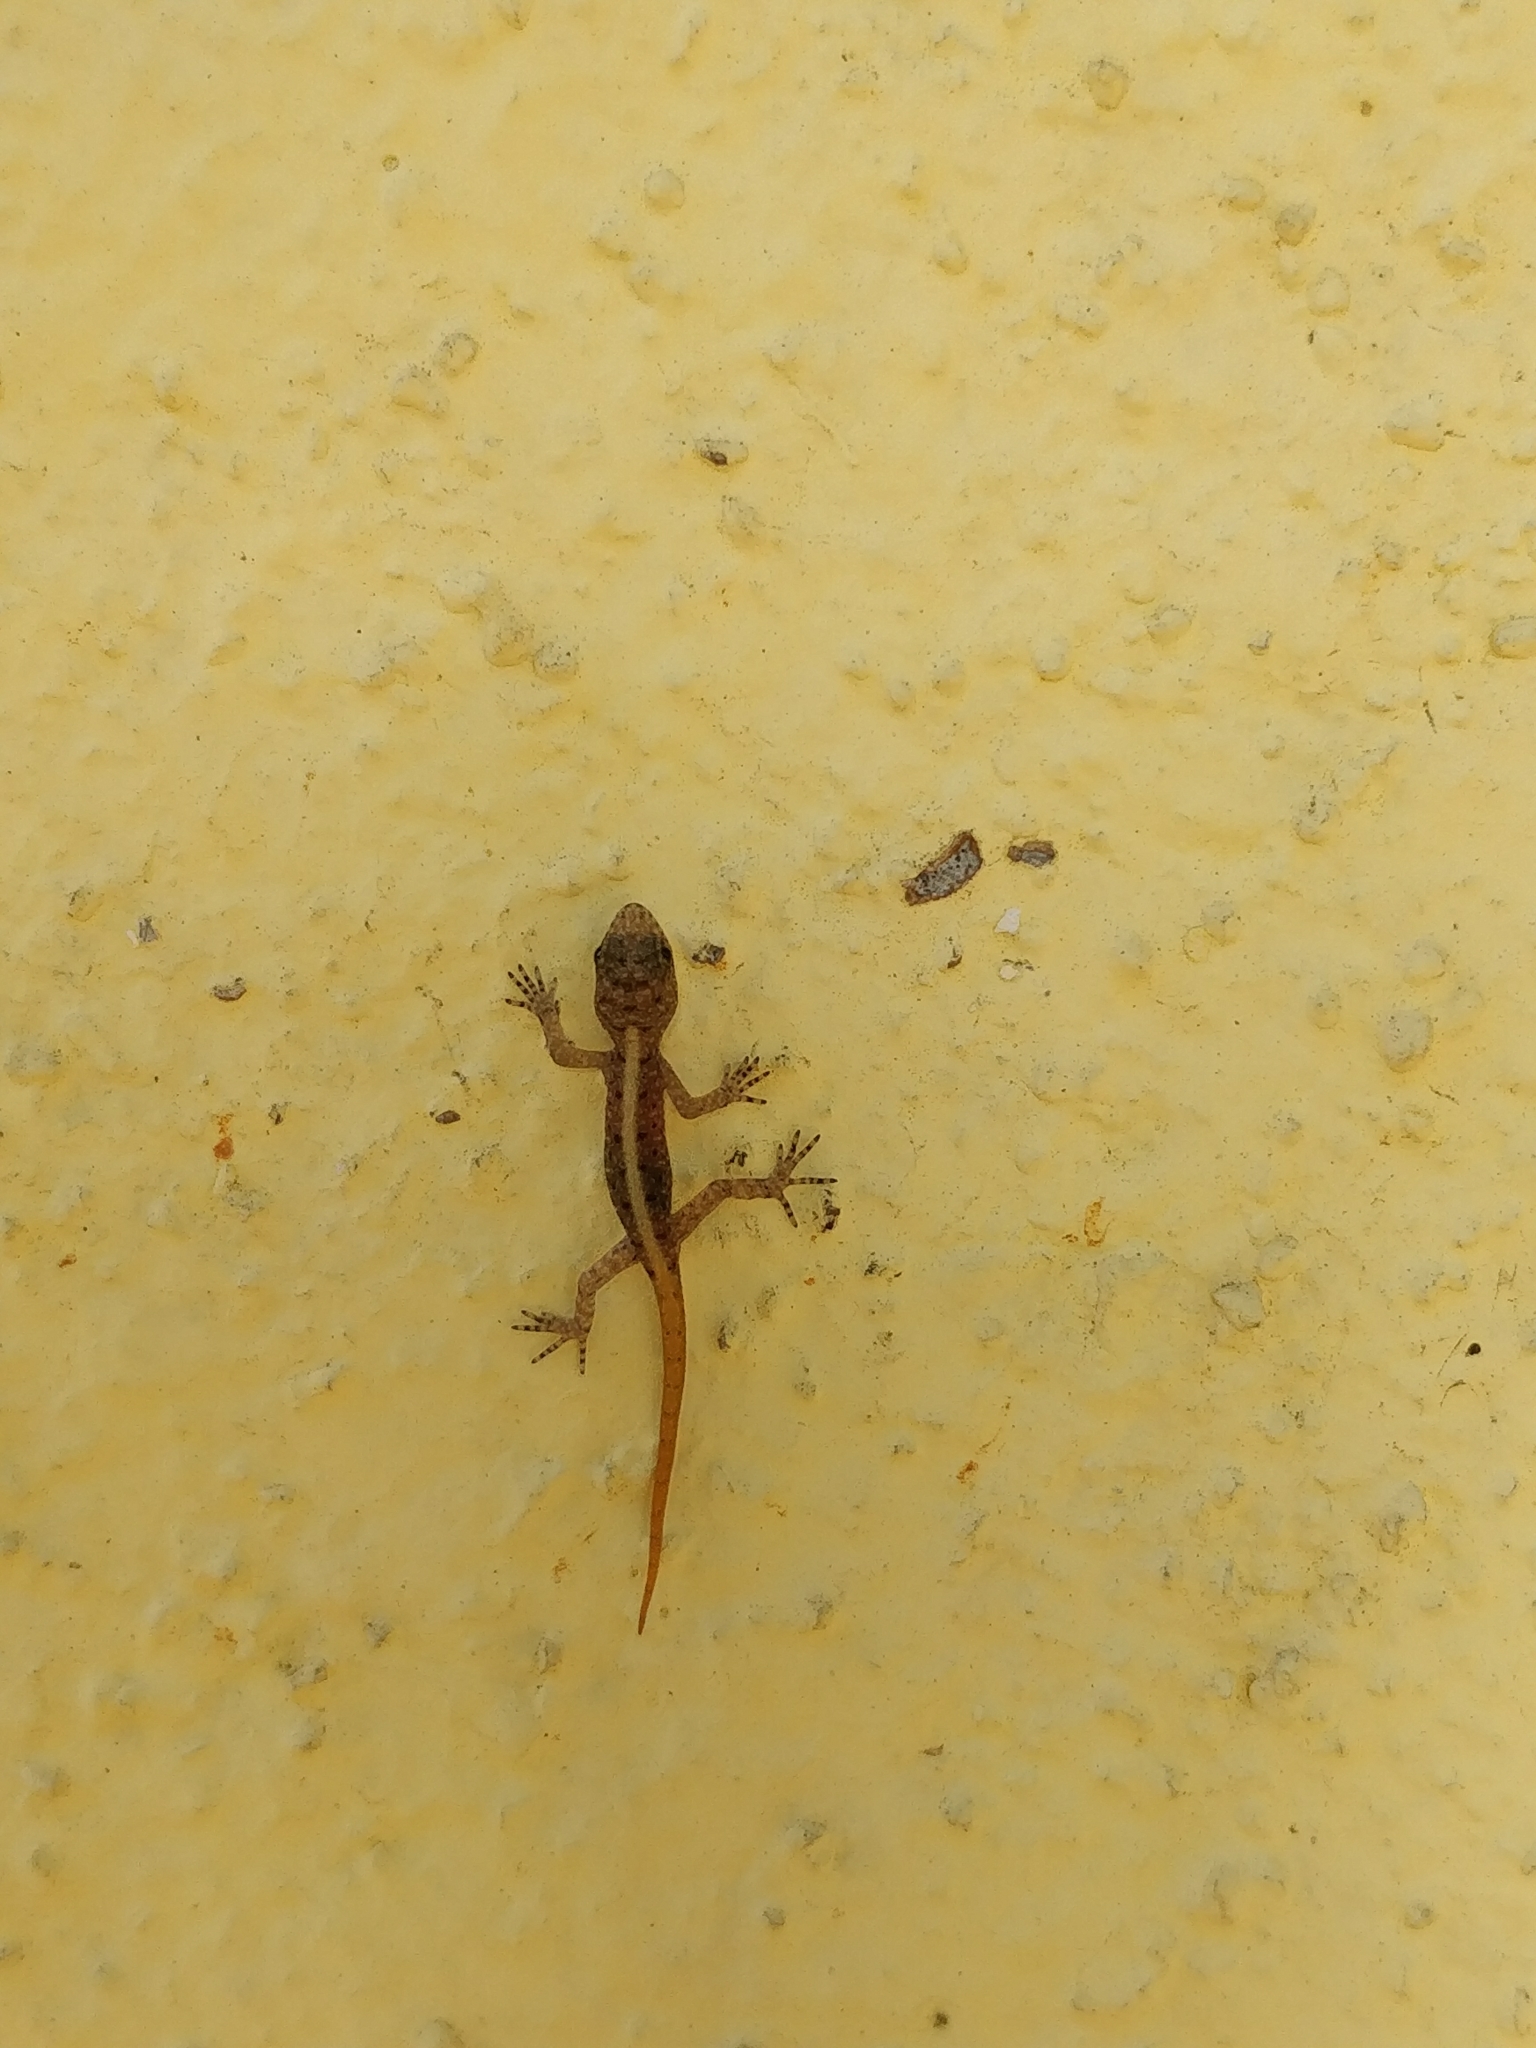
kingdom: Animalia
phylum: Chordata
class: Squamata
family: Gekkonidae
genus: Cnemaspis
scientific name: Cnemaspis mysoriensis
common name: Mysore day gecko
